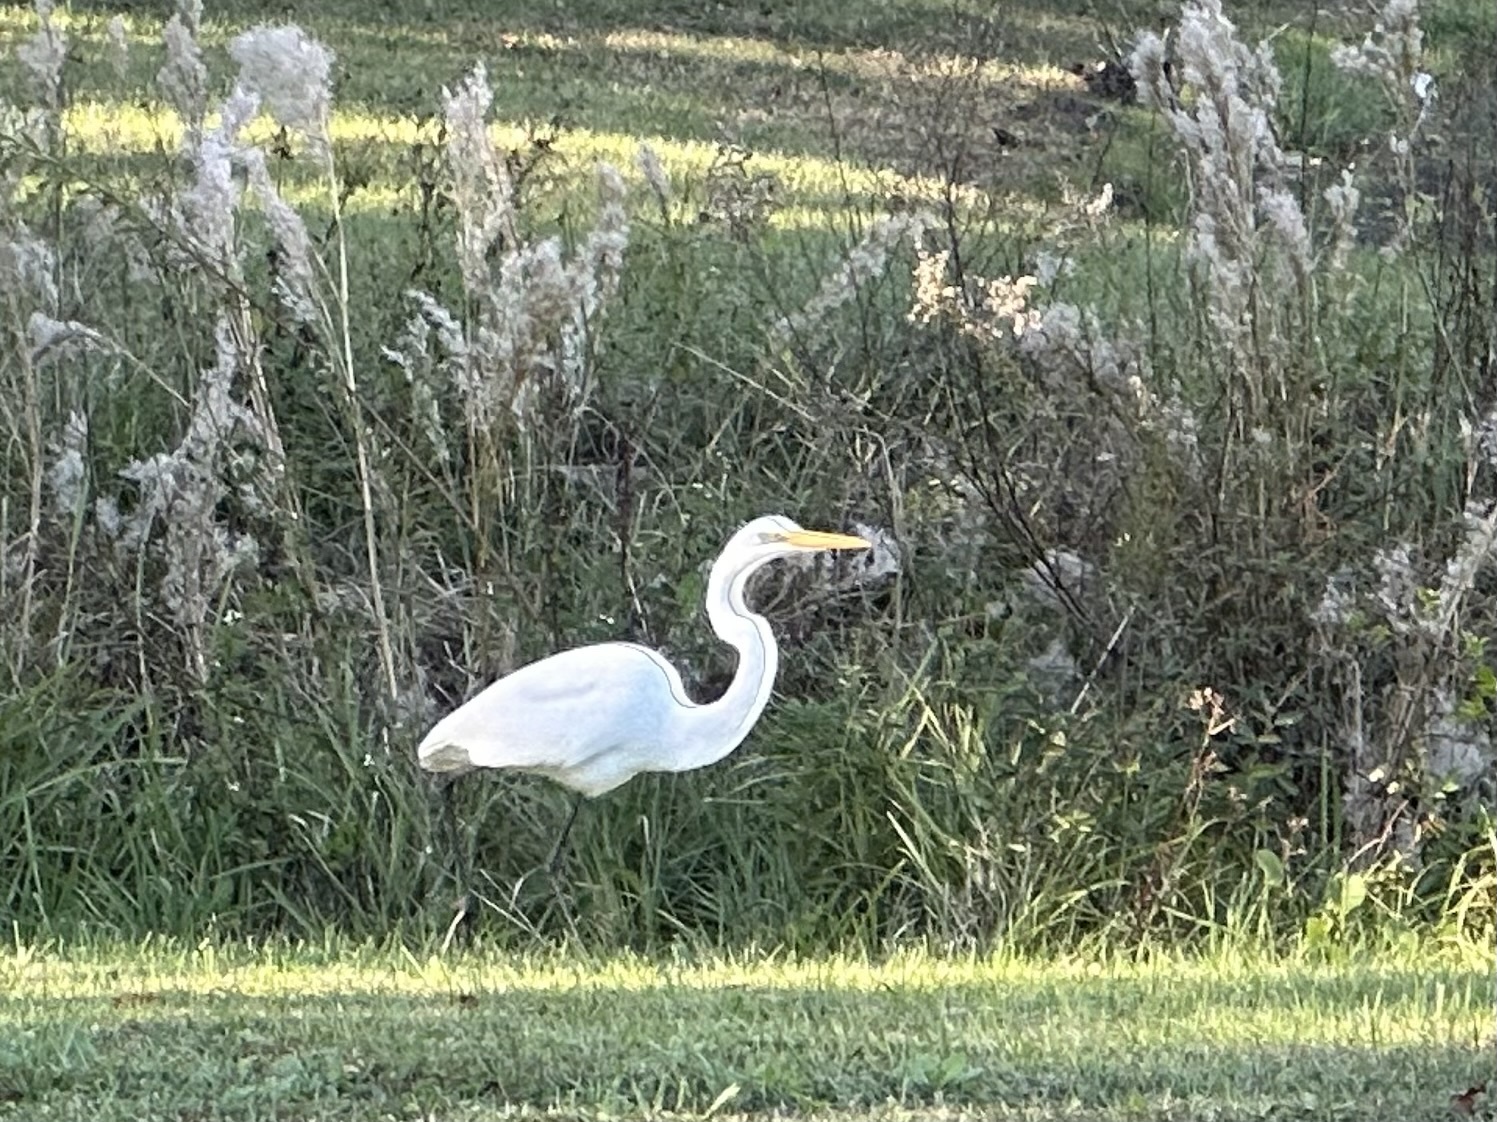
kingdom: Animalia
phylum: Chordata
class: Aves
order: Pelecaniformes
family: Ardeidae
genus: Ardea
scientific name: Ardea alba
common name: Great egret
